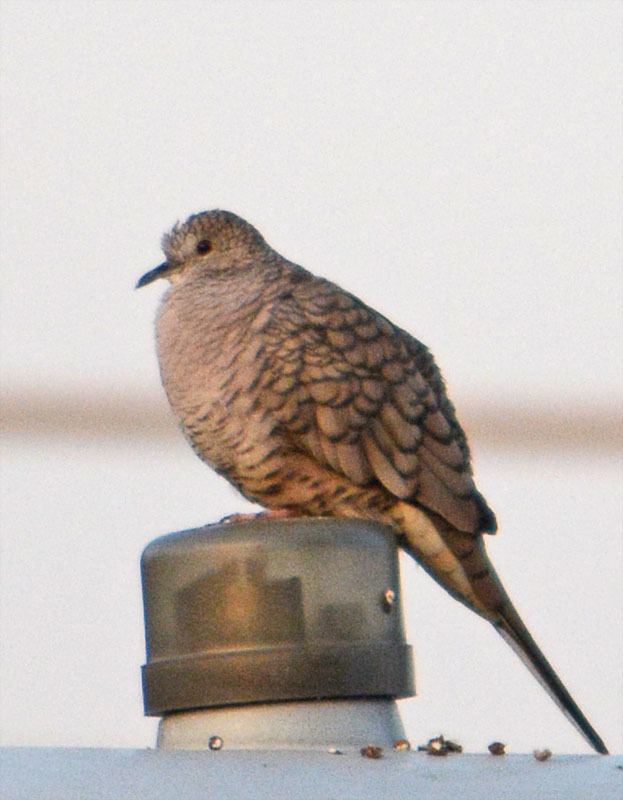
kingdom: Animalia
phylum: Chordata
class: Aves
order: Columbiformes
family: Columbidae
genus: Columbina
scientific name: Columbina inca
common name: Inca dove
